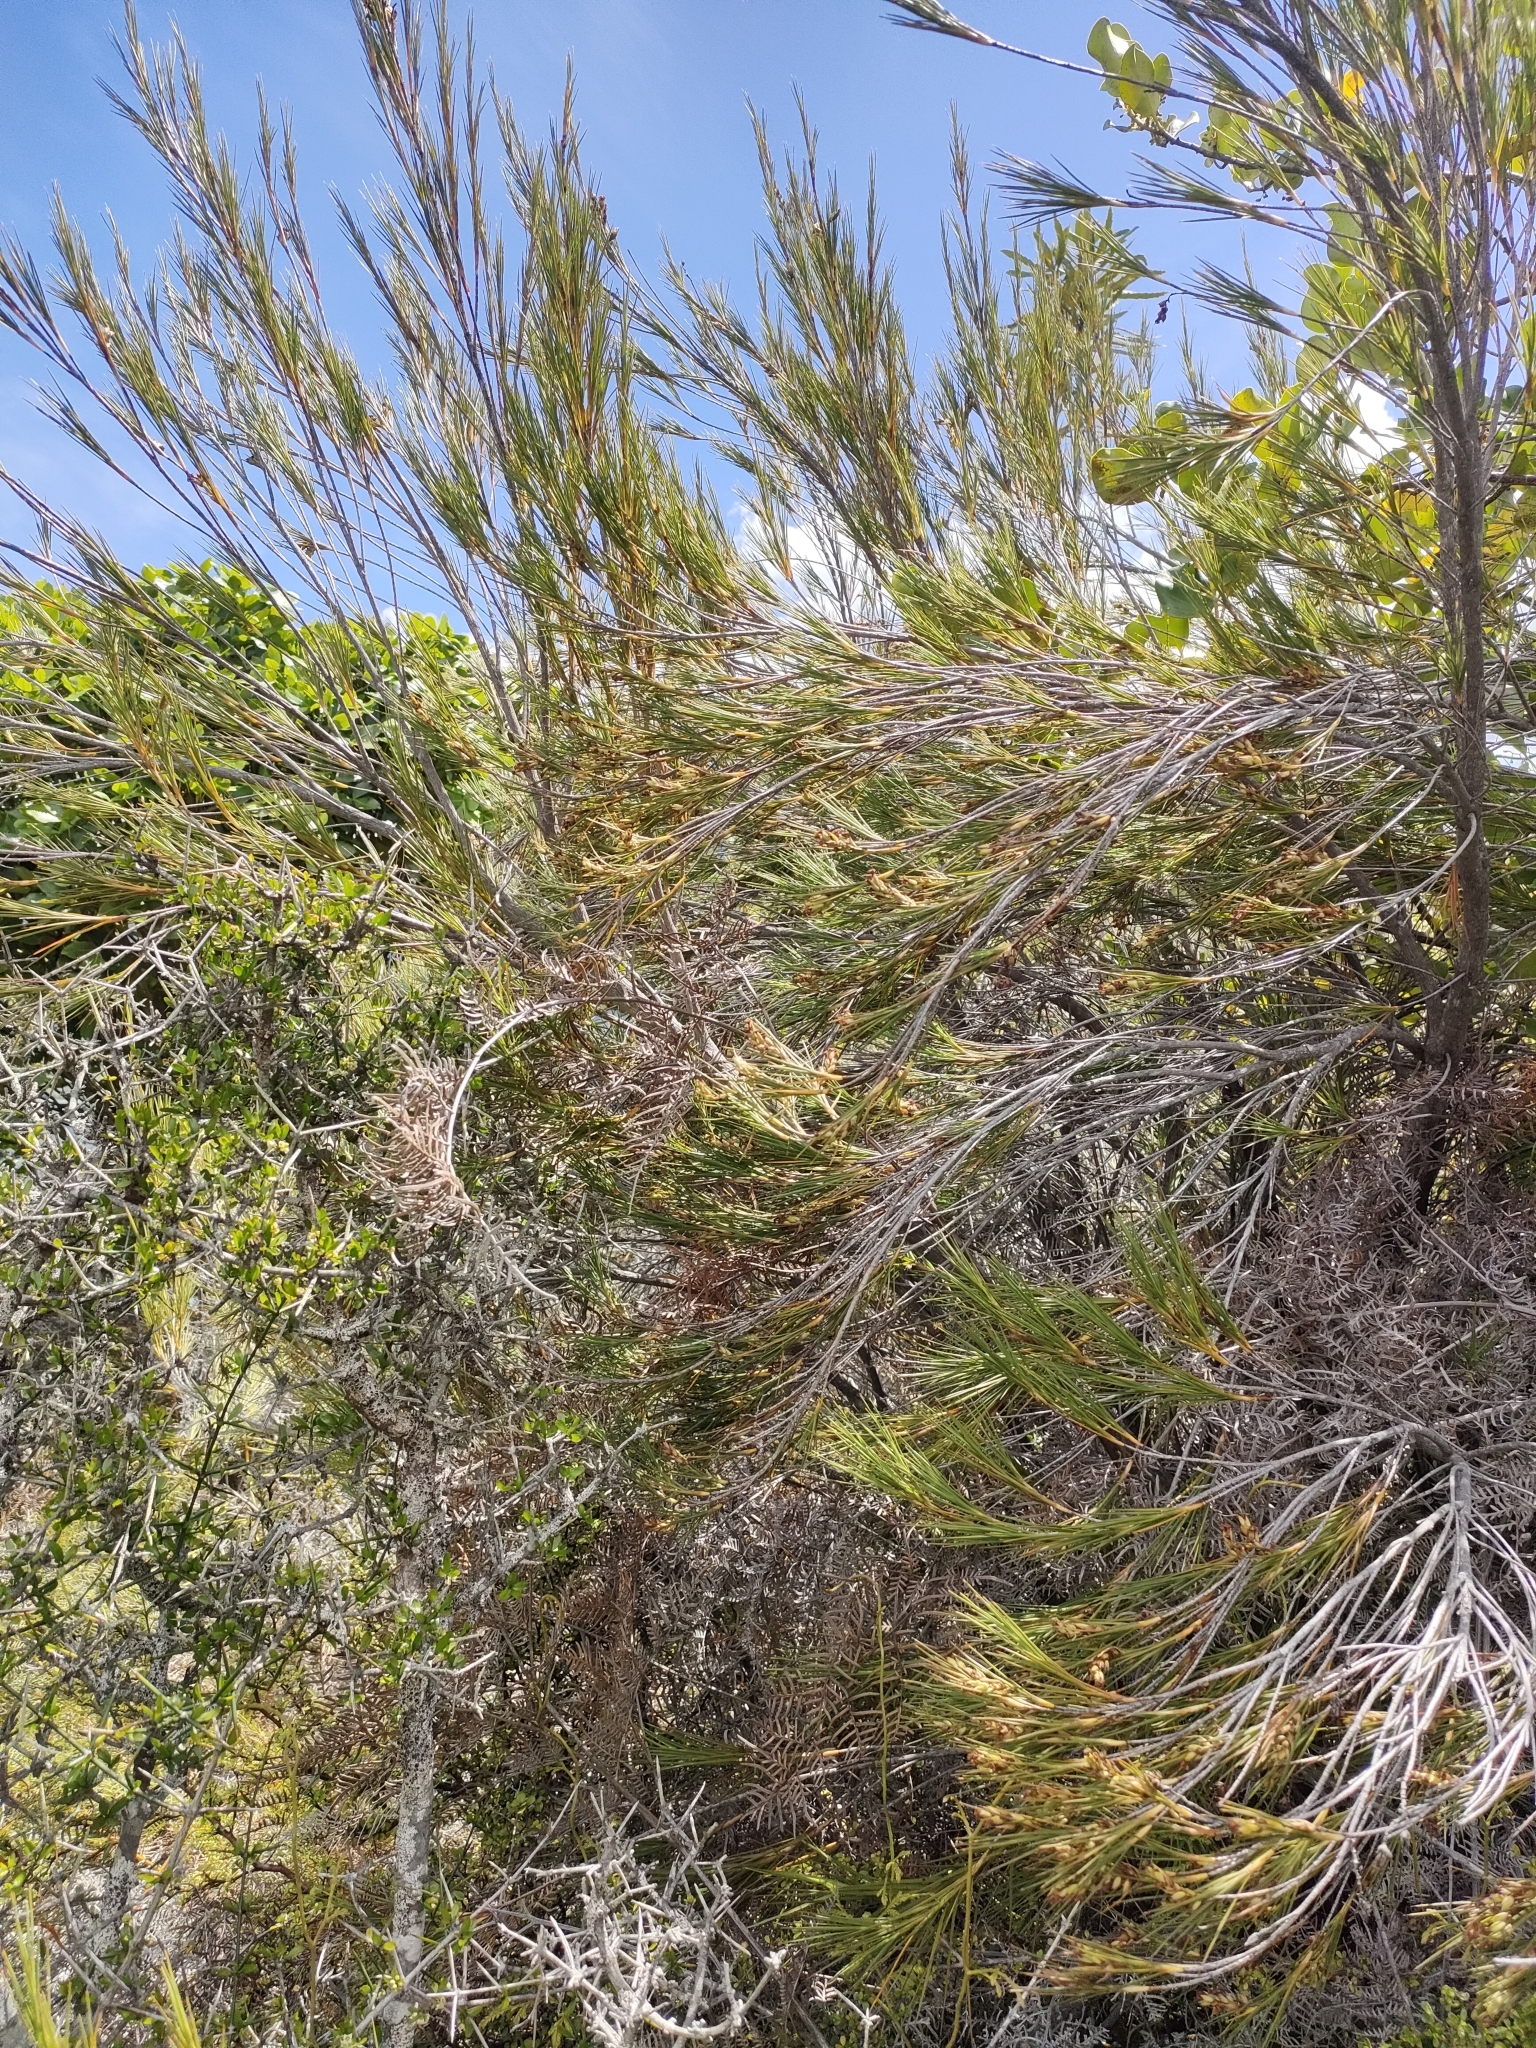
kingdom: Plantae
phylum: Tracheophyta
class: Magnoliopsida
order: Ericales
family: Ericaceae
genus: Dracophyllum
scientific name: Dracophyllum longifolium
